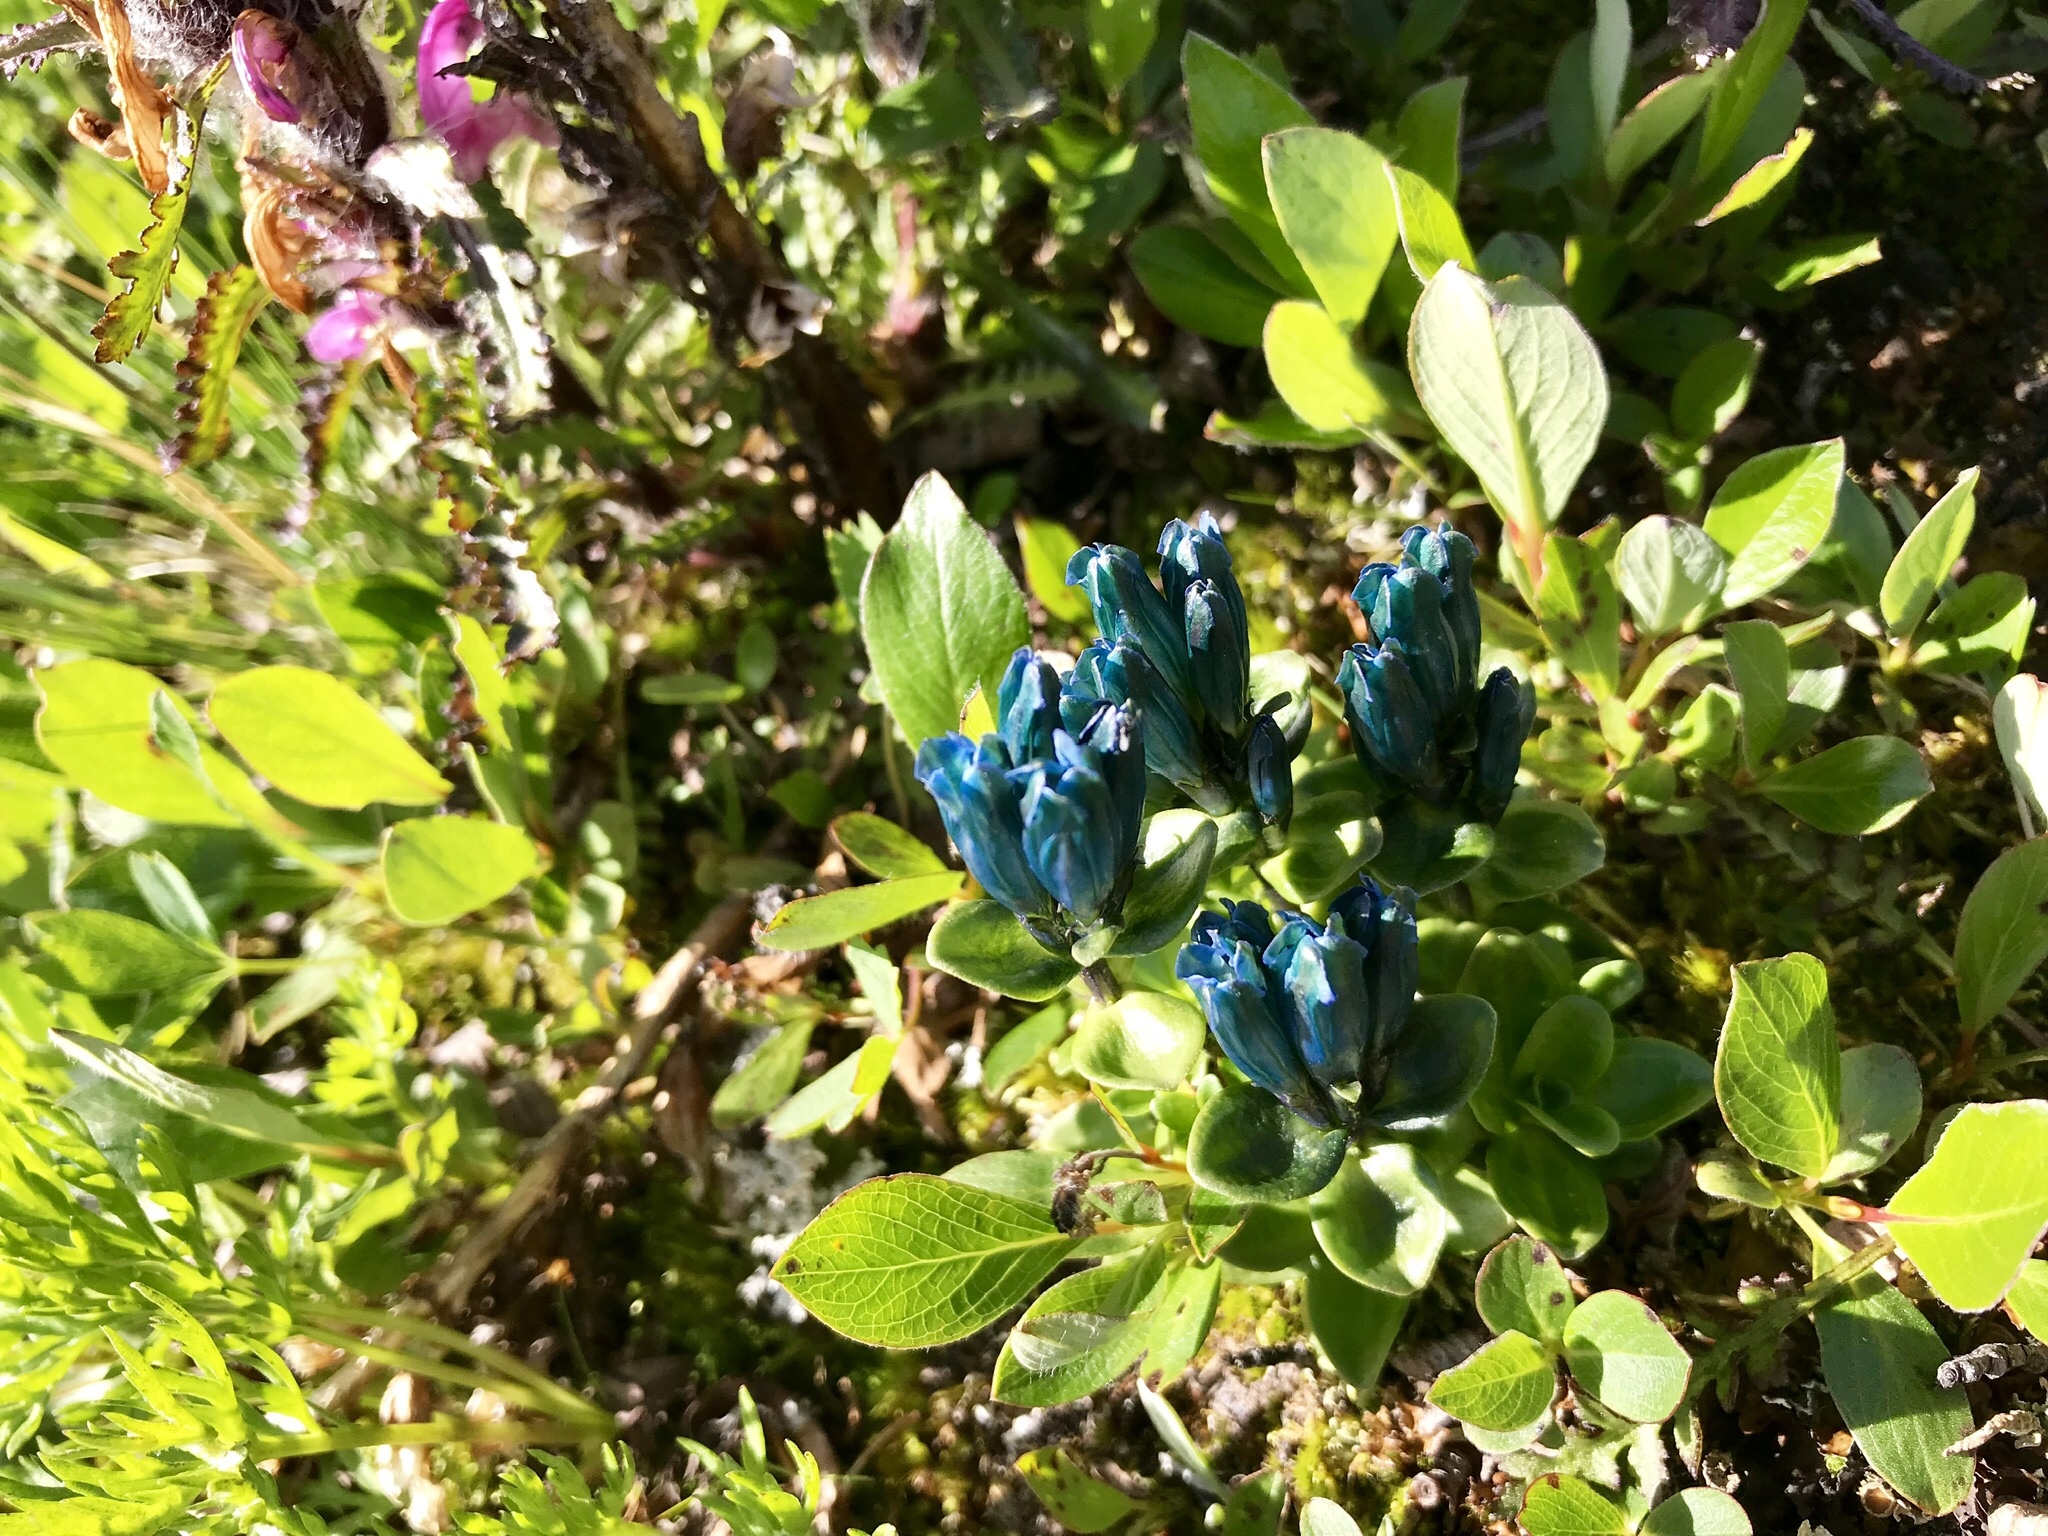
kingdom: Plantae
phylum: Tracheophyta
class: Magnoliopsida
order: Gentianales
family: Gentianaceae
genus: Gentiana
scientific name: Gentiana glauca
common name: Alpine gentian
